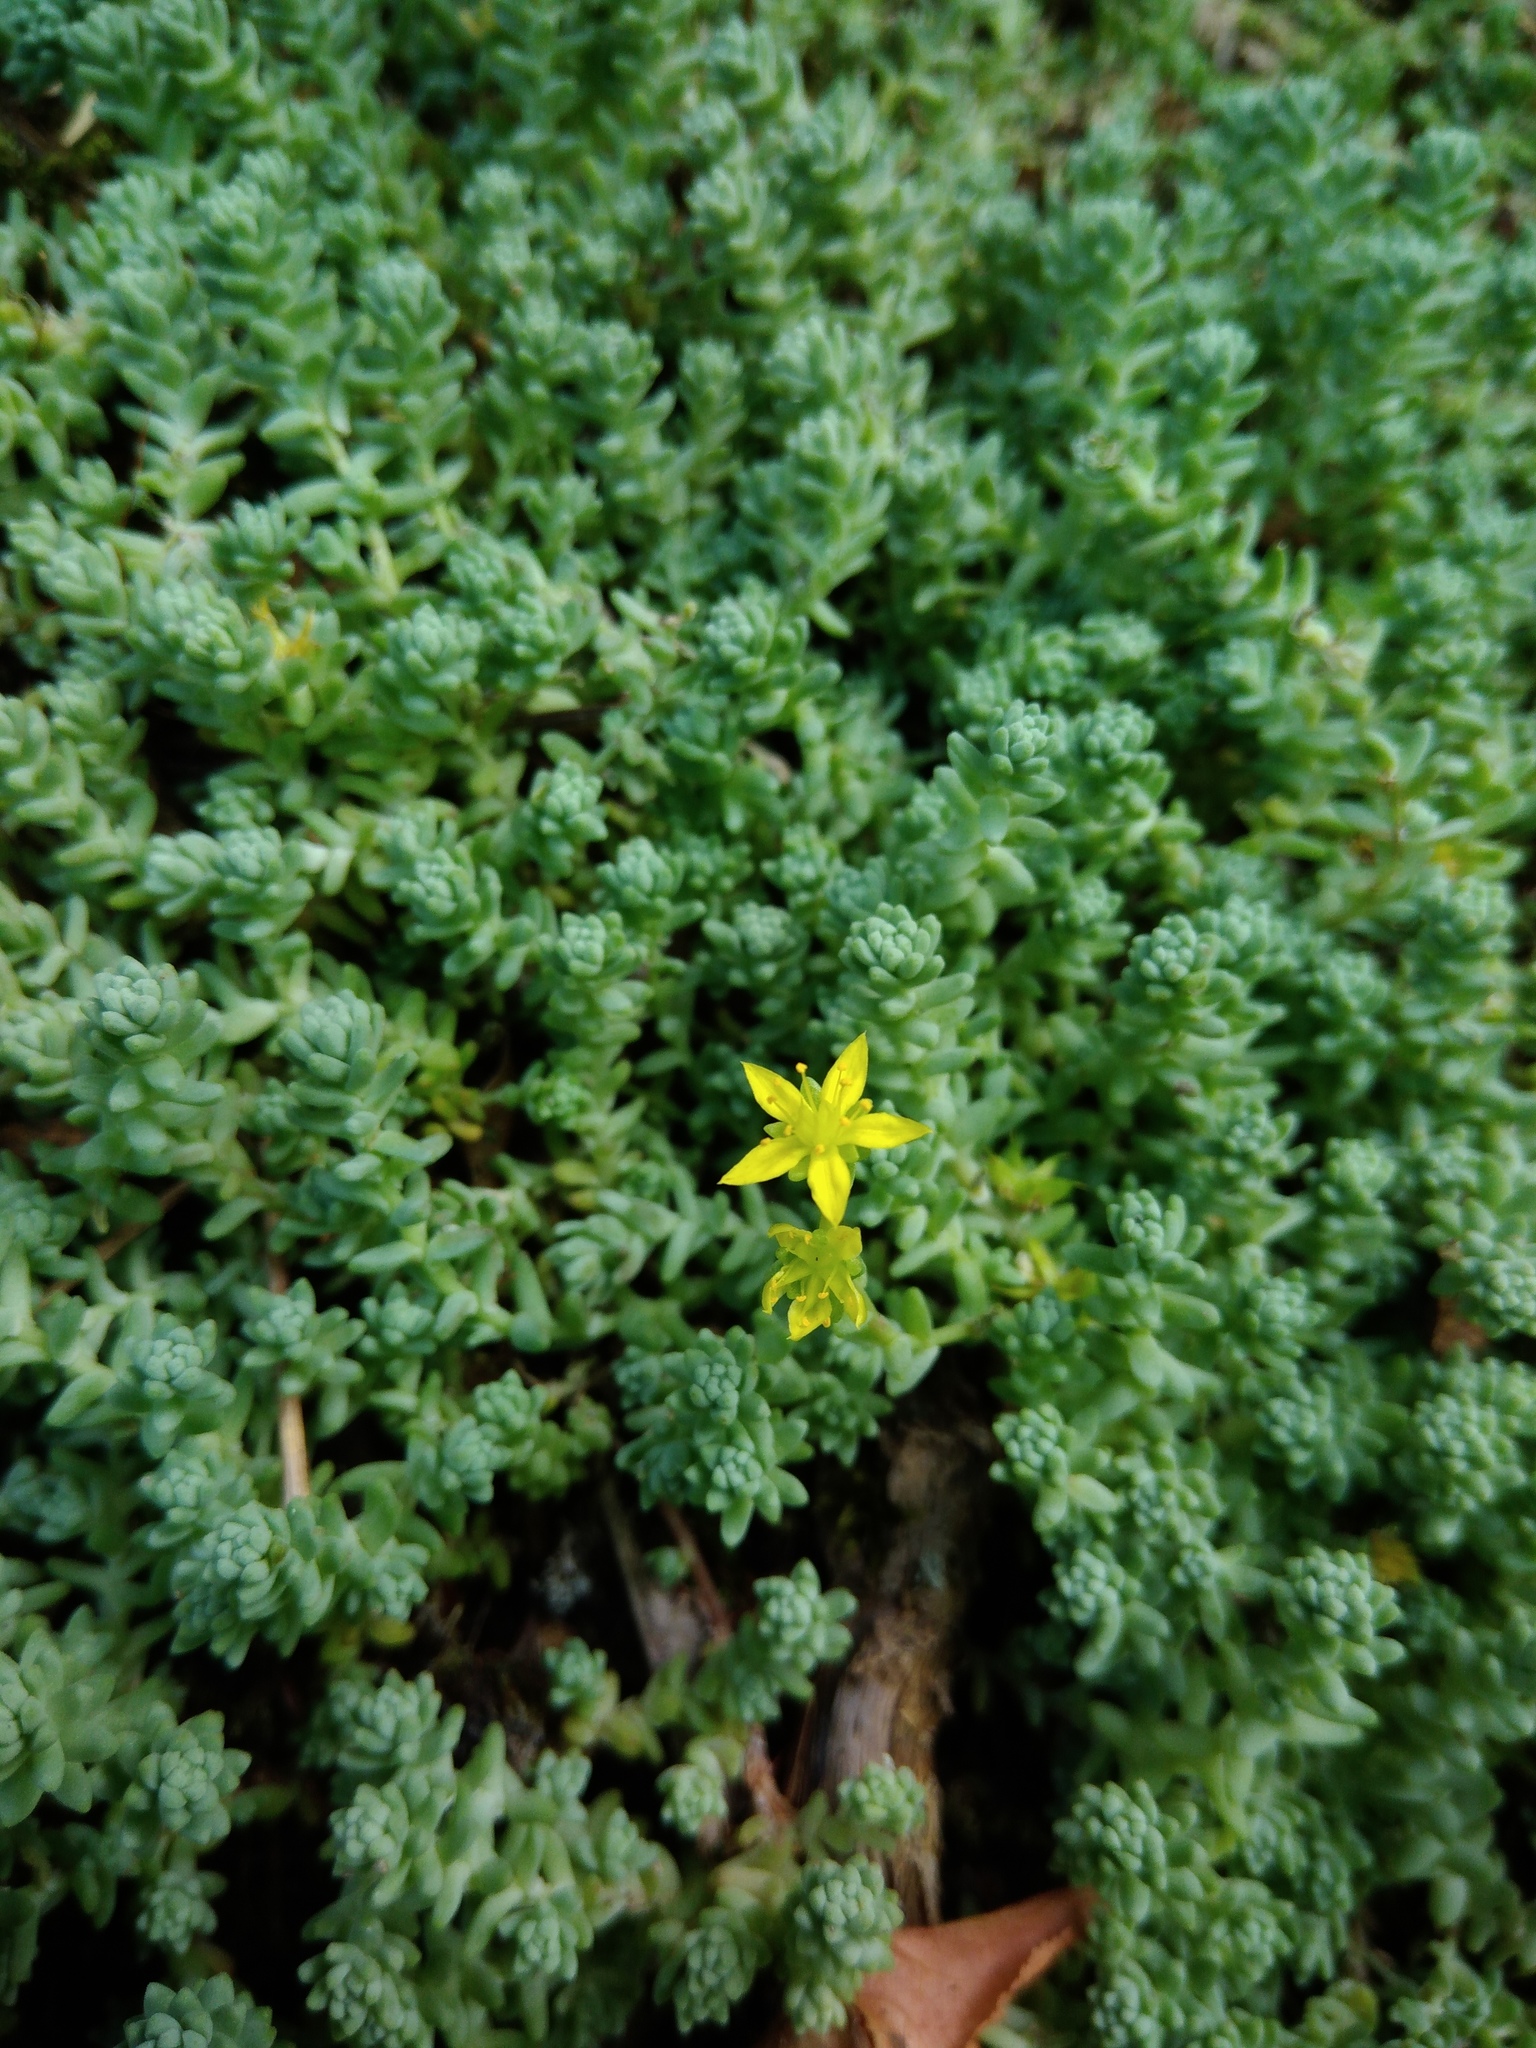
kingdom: Plantae
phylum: Tracheophyta
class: Magnoliopsida
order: Saxifragales
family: Crassulaceae
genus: Sedum
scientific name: Sedum borissovae
